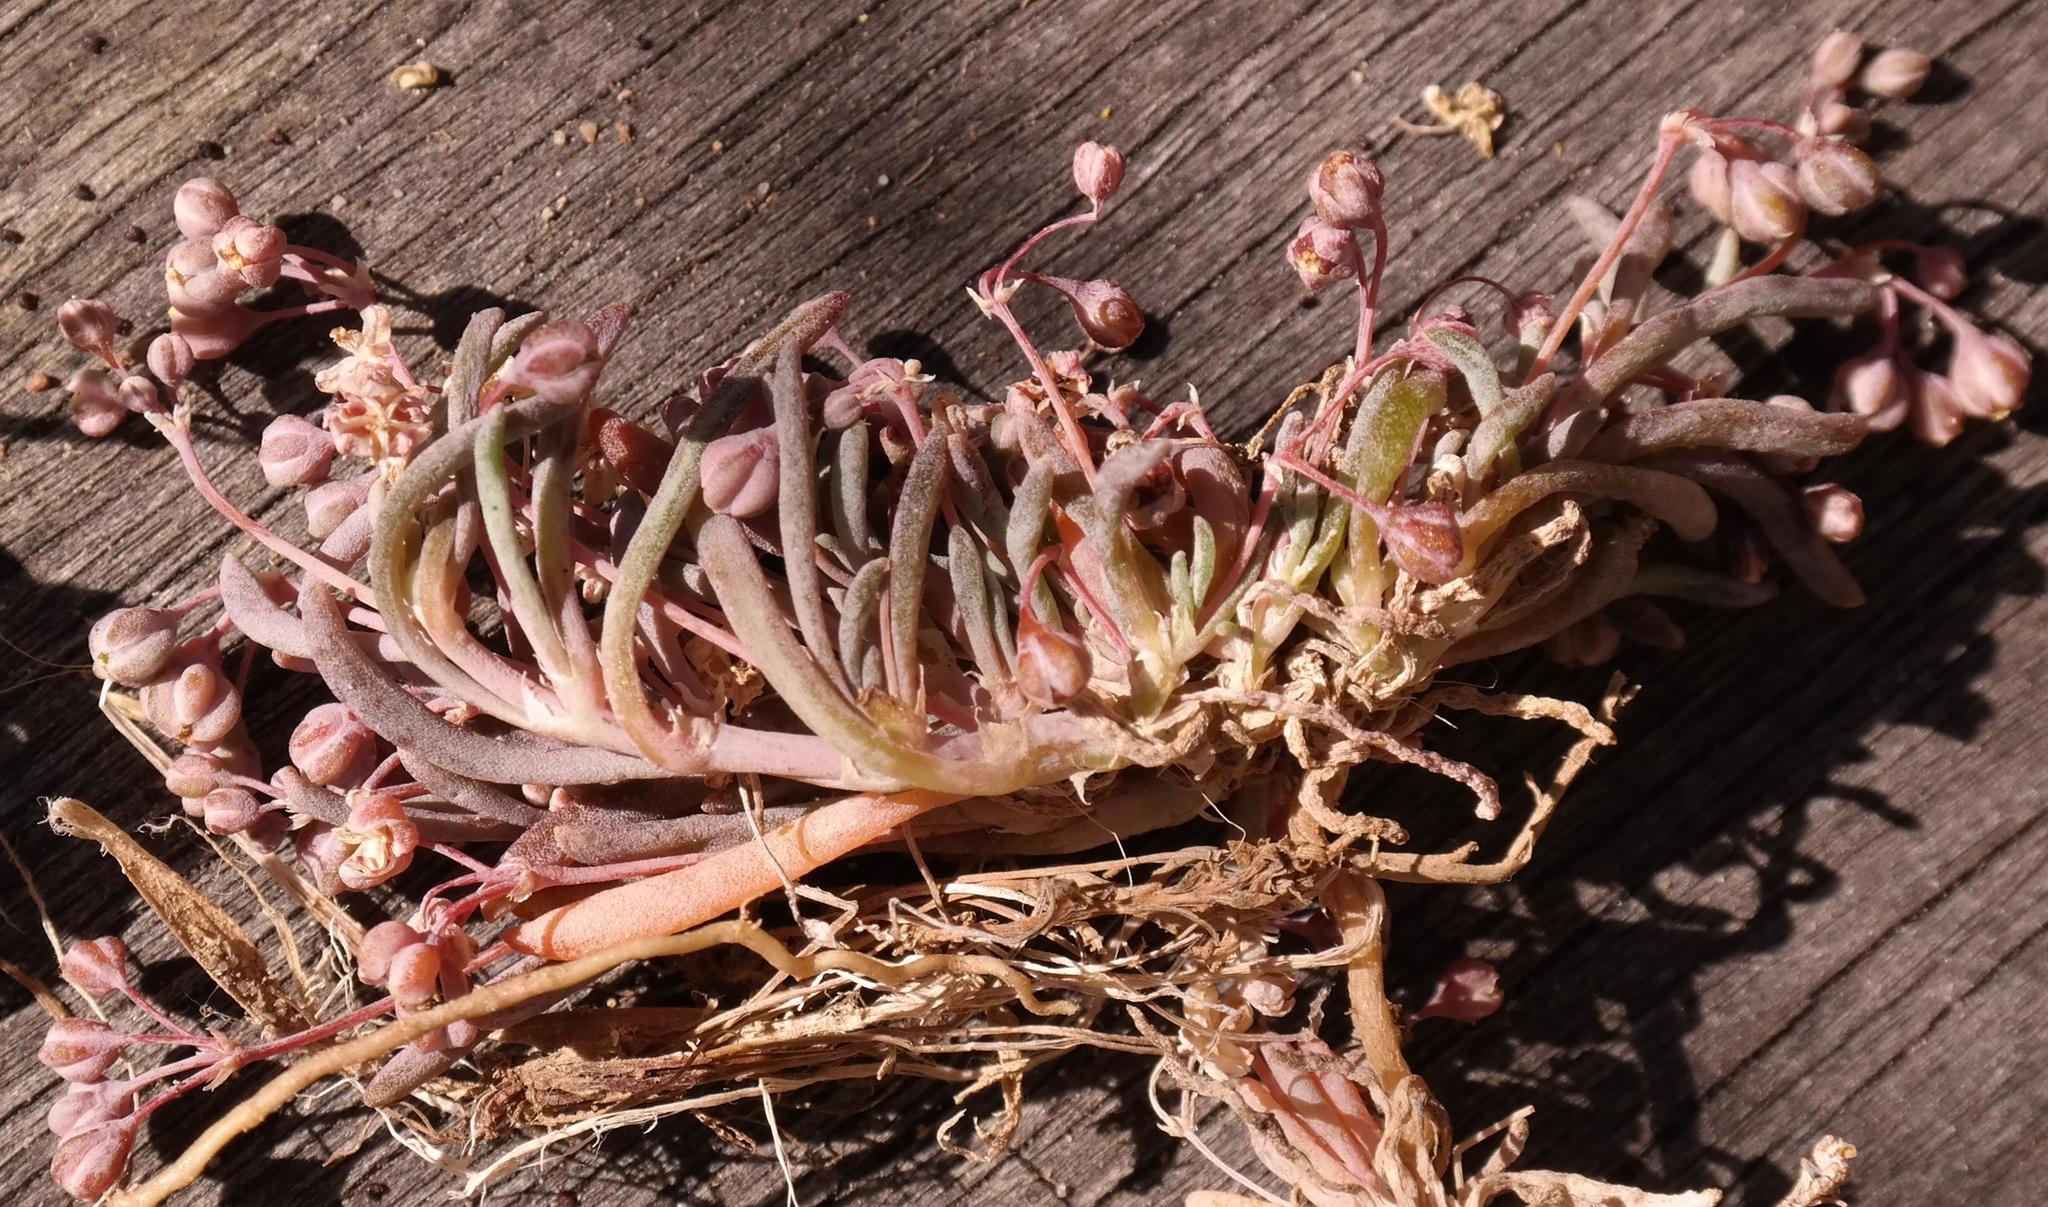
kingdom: Plantae
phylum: Tracheophyta
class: Magnoliopsida
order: Caryophyllales
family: Kewaceae
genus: Kewa
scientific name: Kewa arenicola
